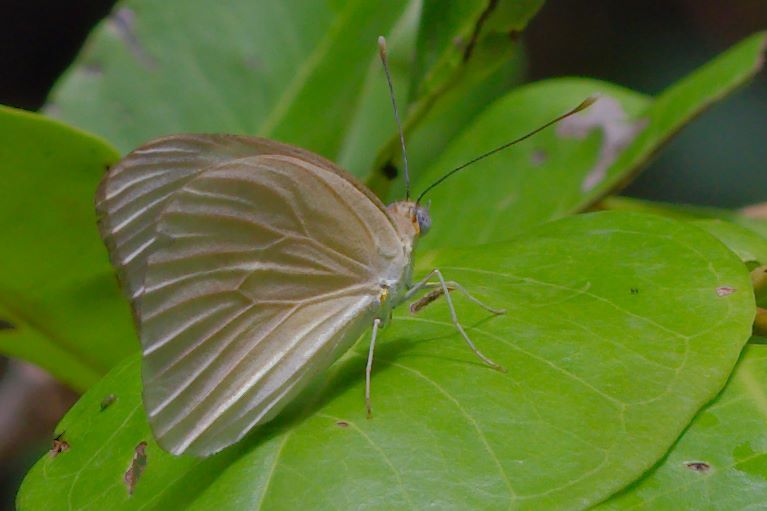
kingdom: Animalia
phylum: Arthropoda
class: Insecta
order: Lepidoptera
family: Pieridae
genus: Glutophrissa
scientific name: Glutophrissa drusilla
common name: Florida white
